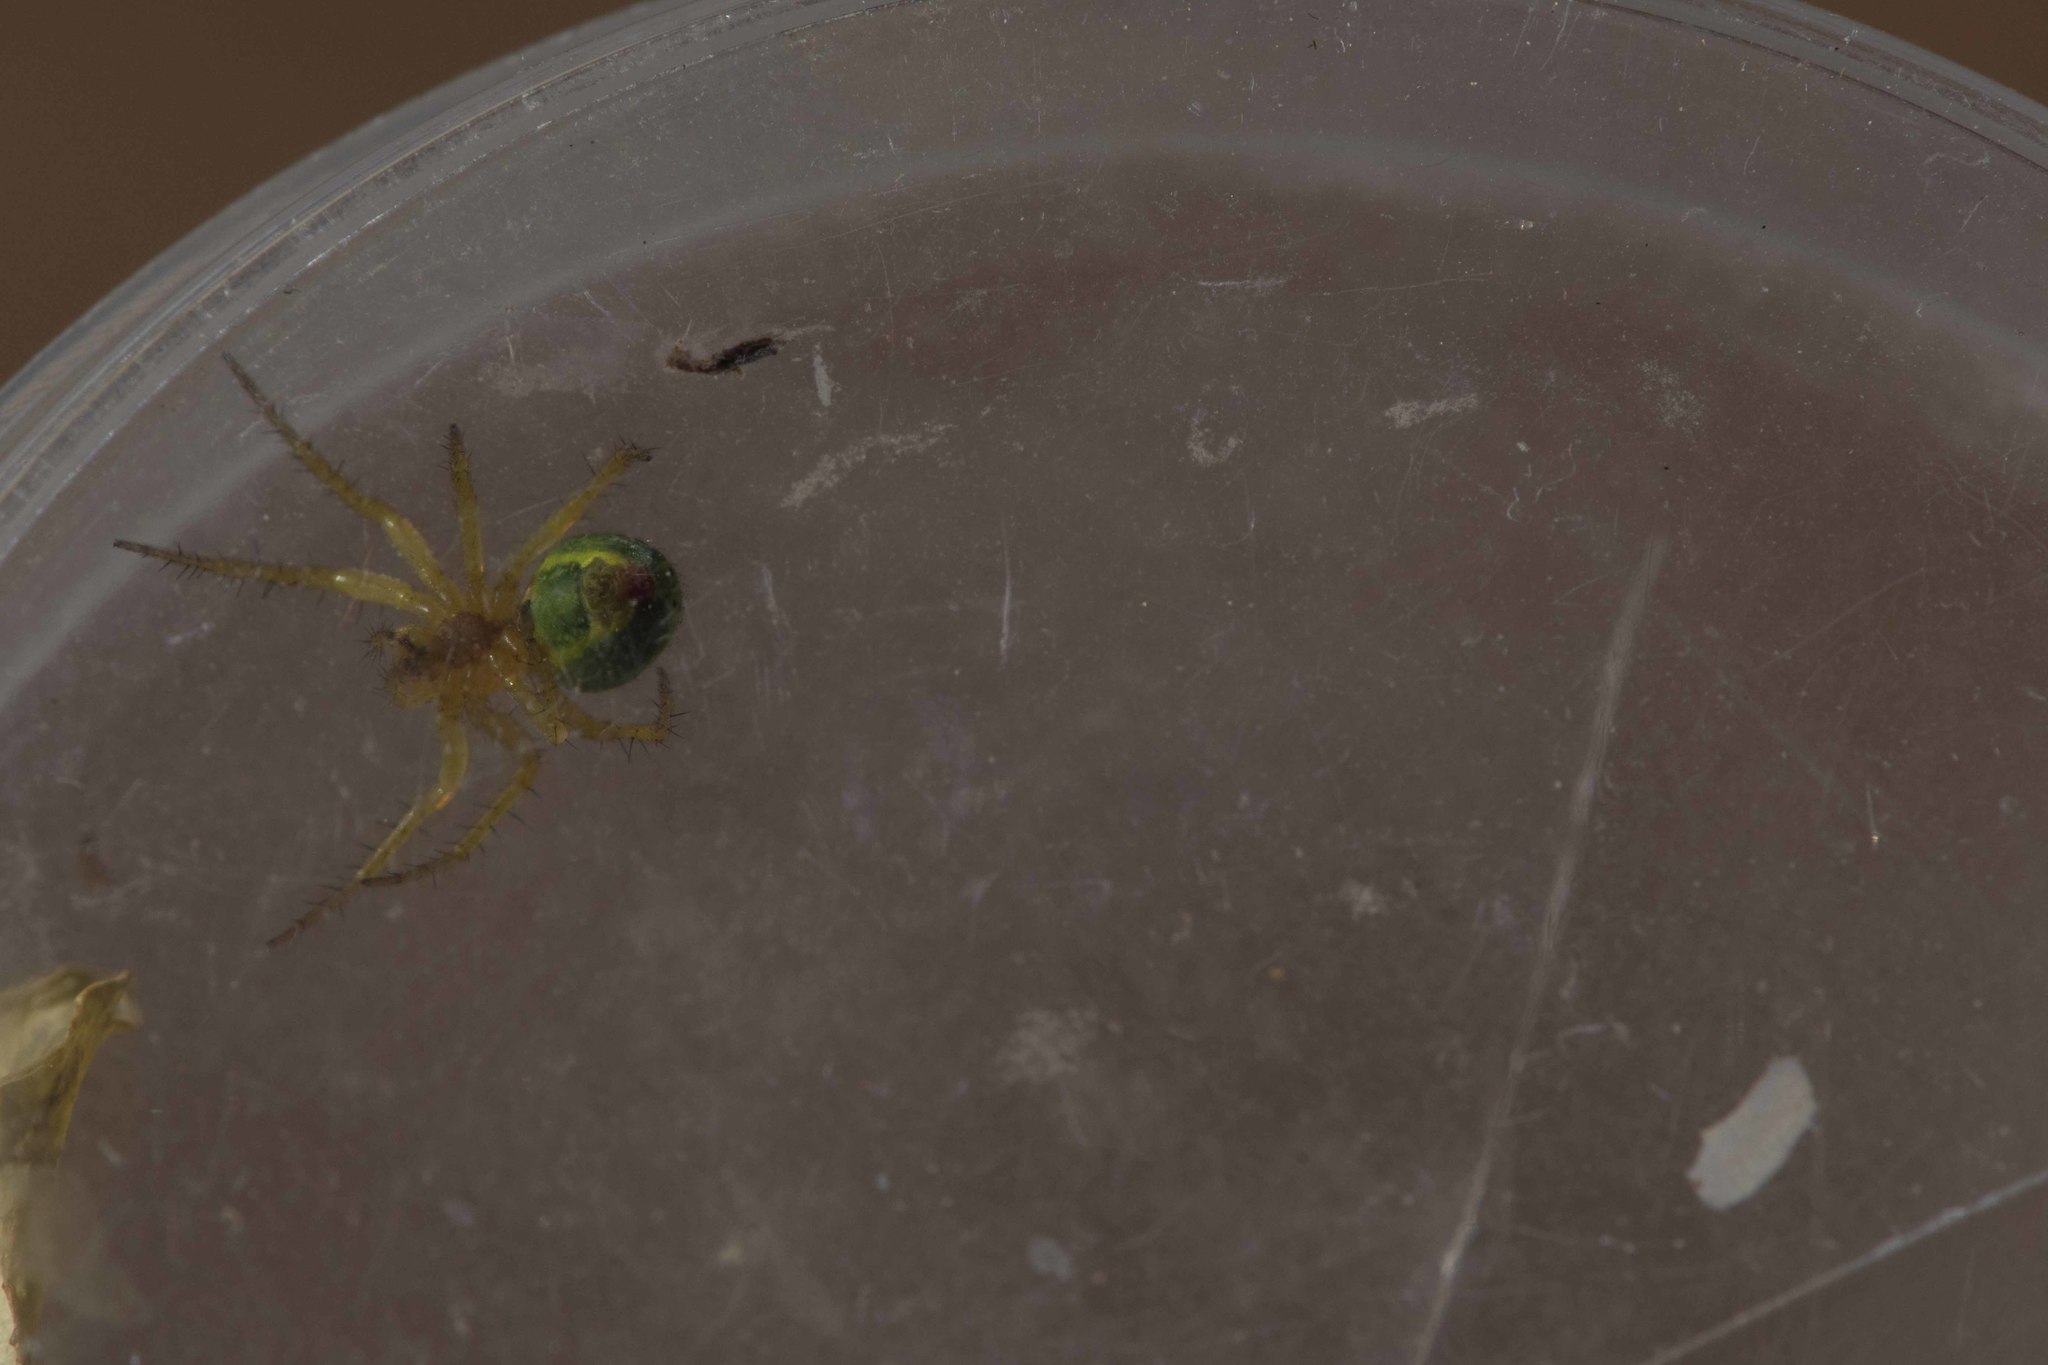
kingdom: Animalia
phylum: Arthropoda
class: Arachnida
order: Araneae
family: Araneidae
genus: Araniella
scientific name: Araniella
